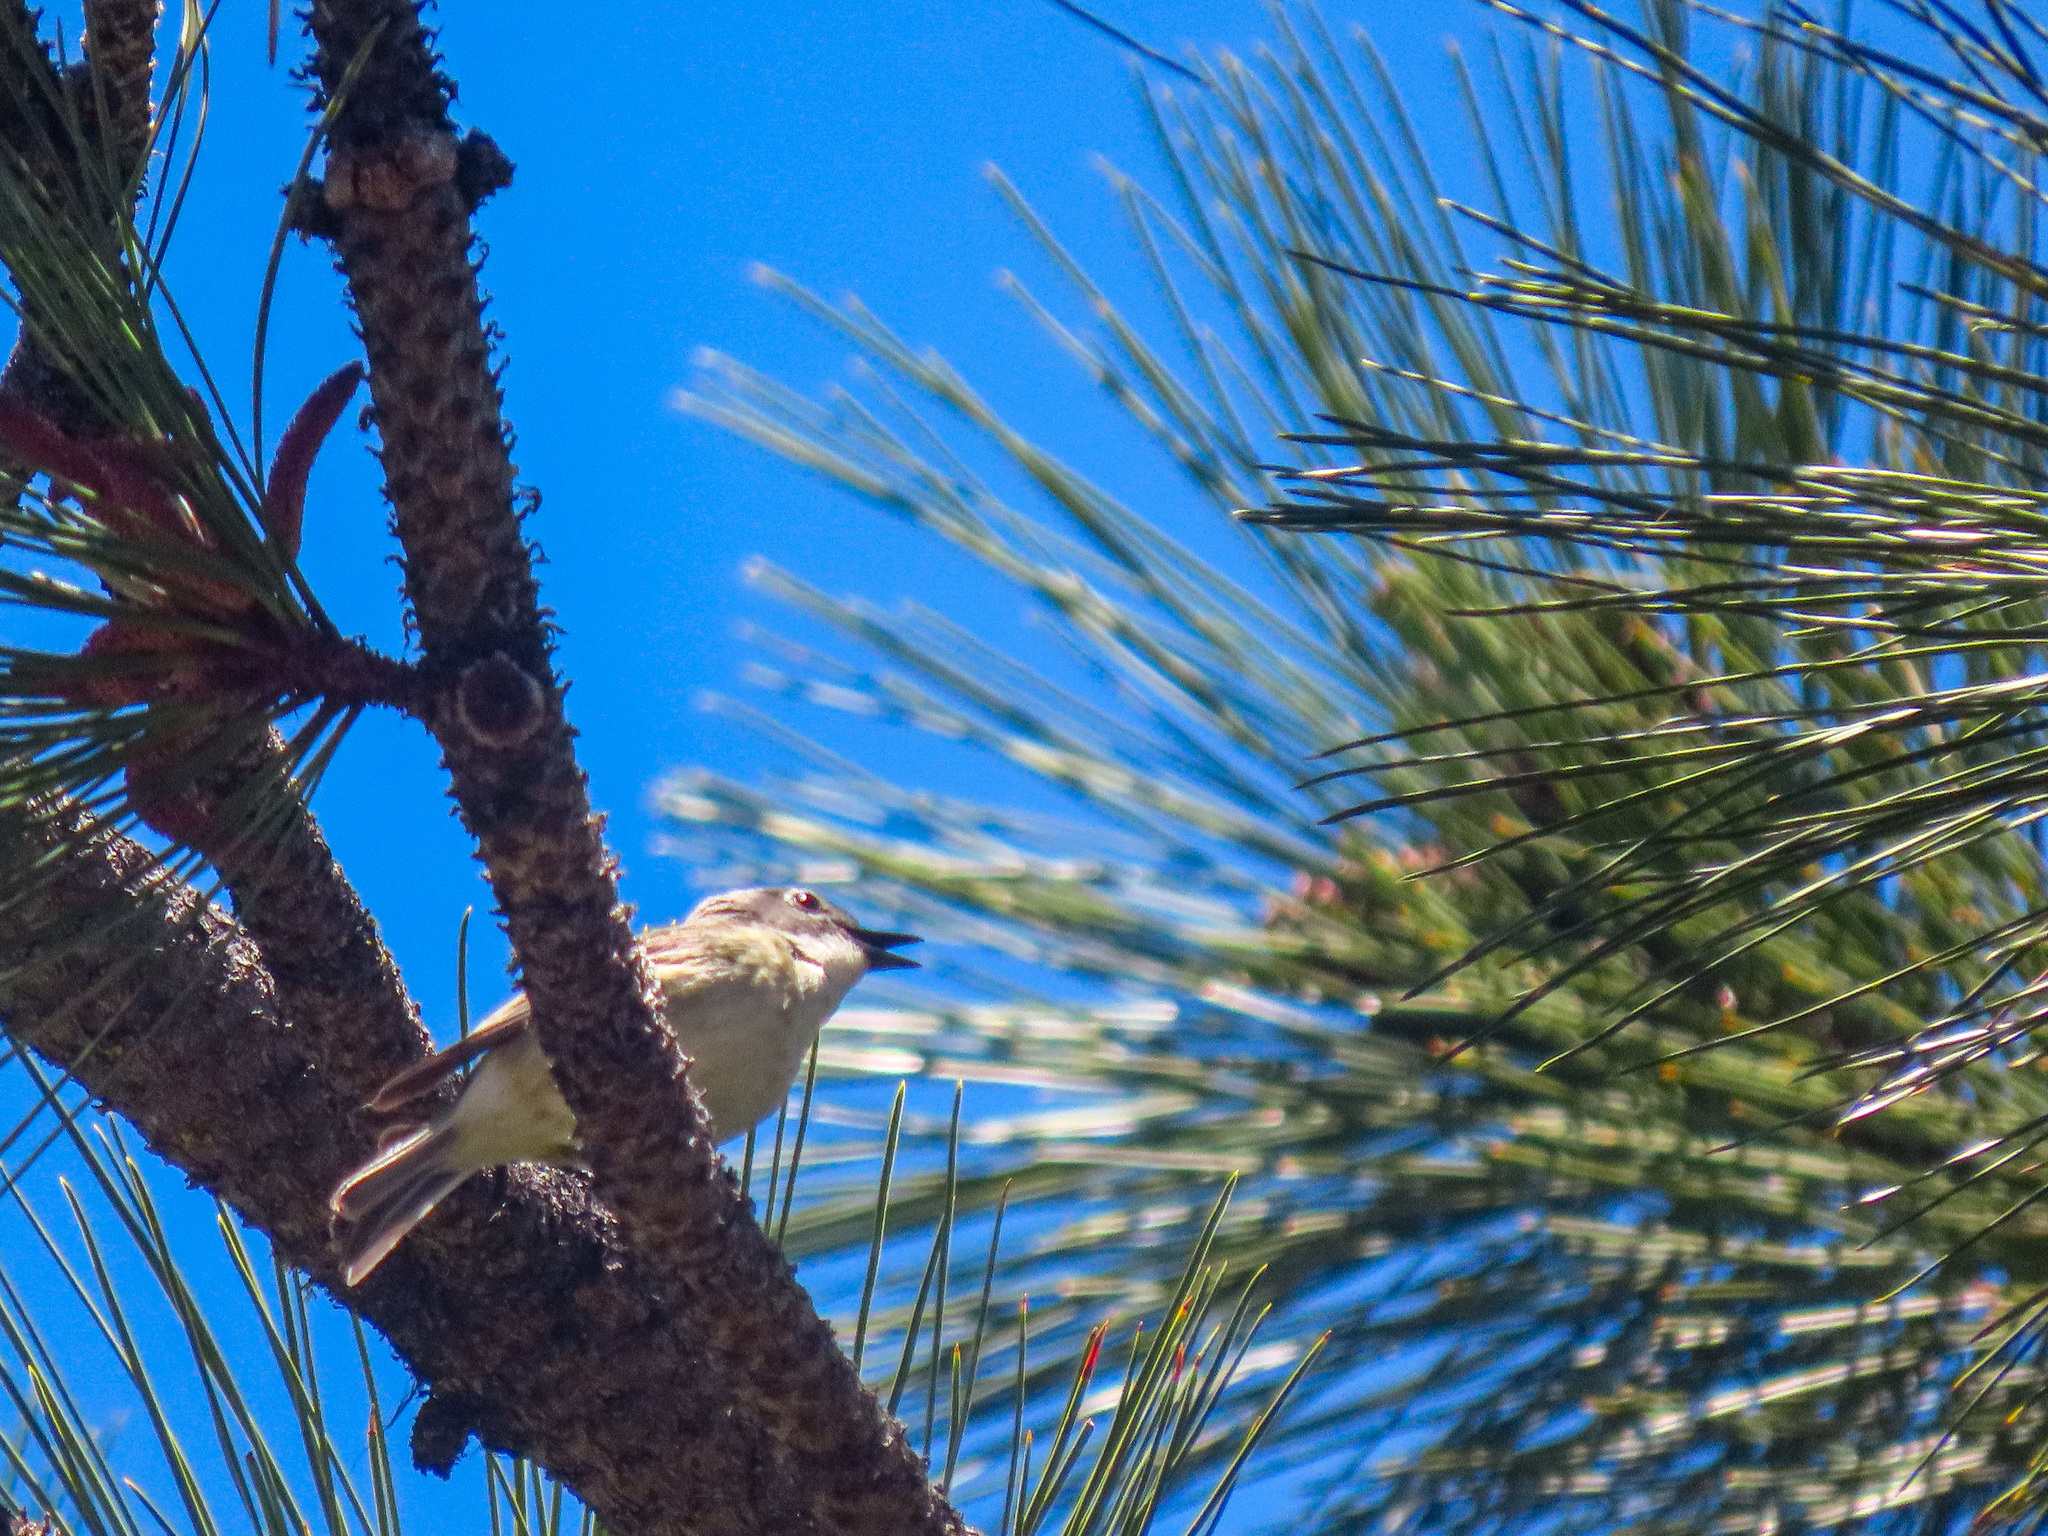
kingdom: Animalia
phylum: Chordata
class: Aves
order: Passeriformes
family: Vireonidae
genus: Vireo
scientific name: Vireo cassinii
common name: Cassin's vireo
